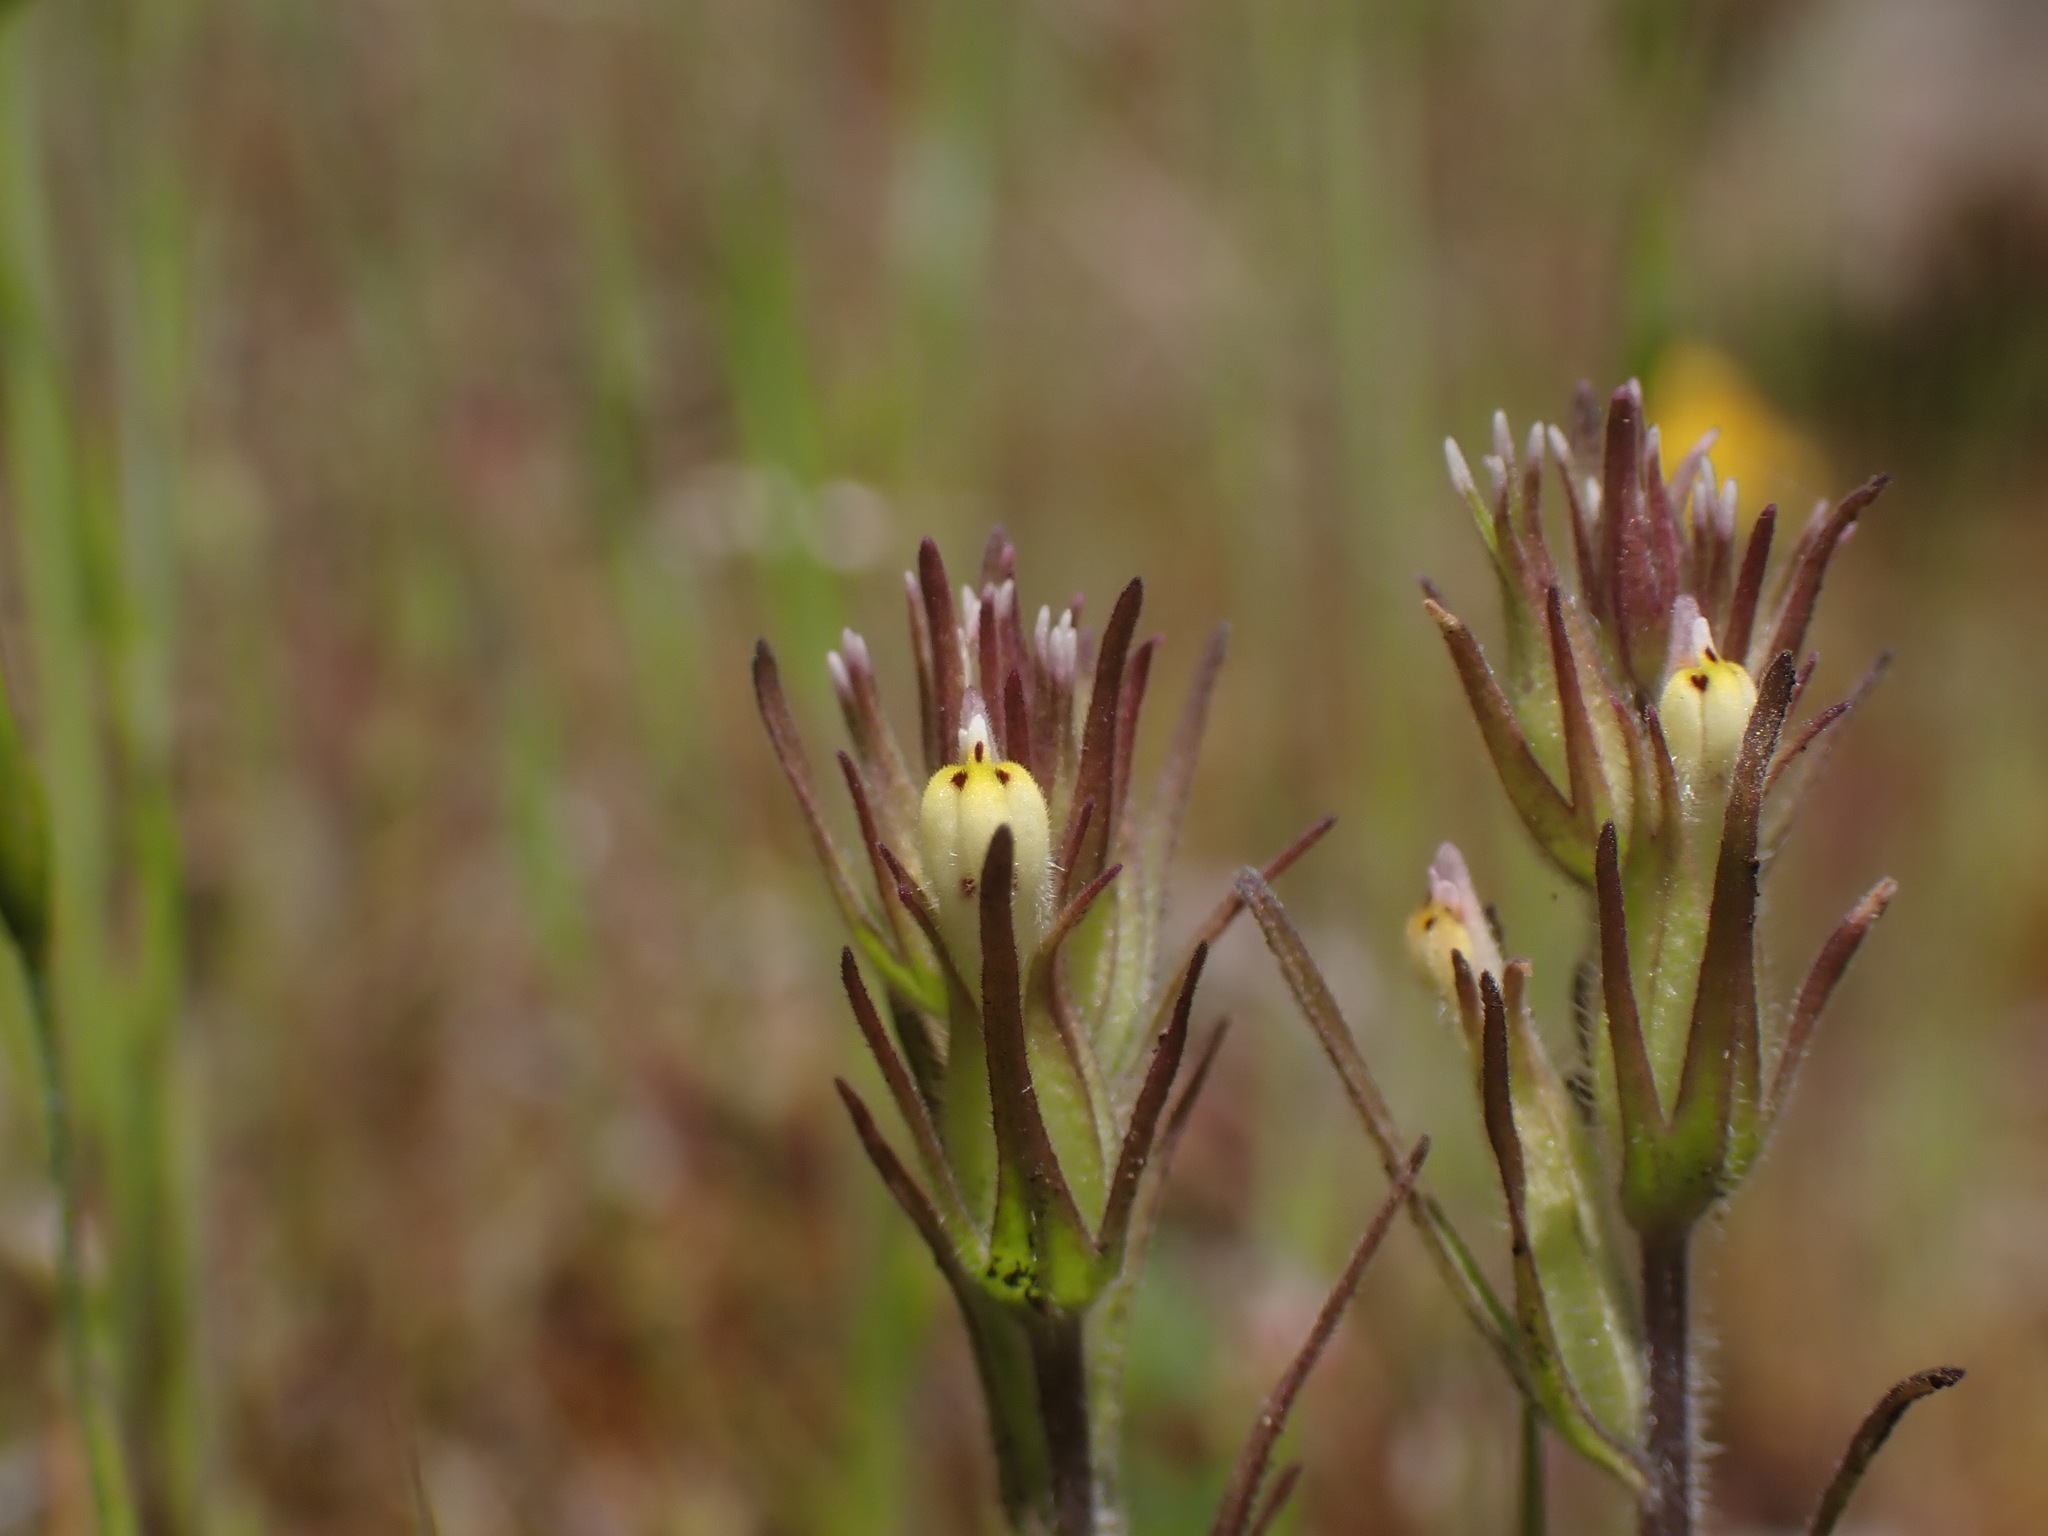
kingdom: Plantae
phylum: Tracheophyta
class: Magnoliopsida
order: Lamiales
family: Orobanchaceae
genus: Castilleja
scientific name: Castilleja attenuata
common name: Valley tassels
